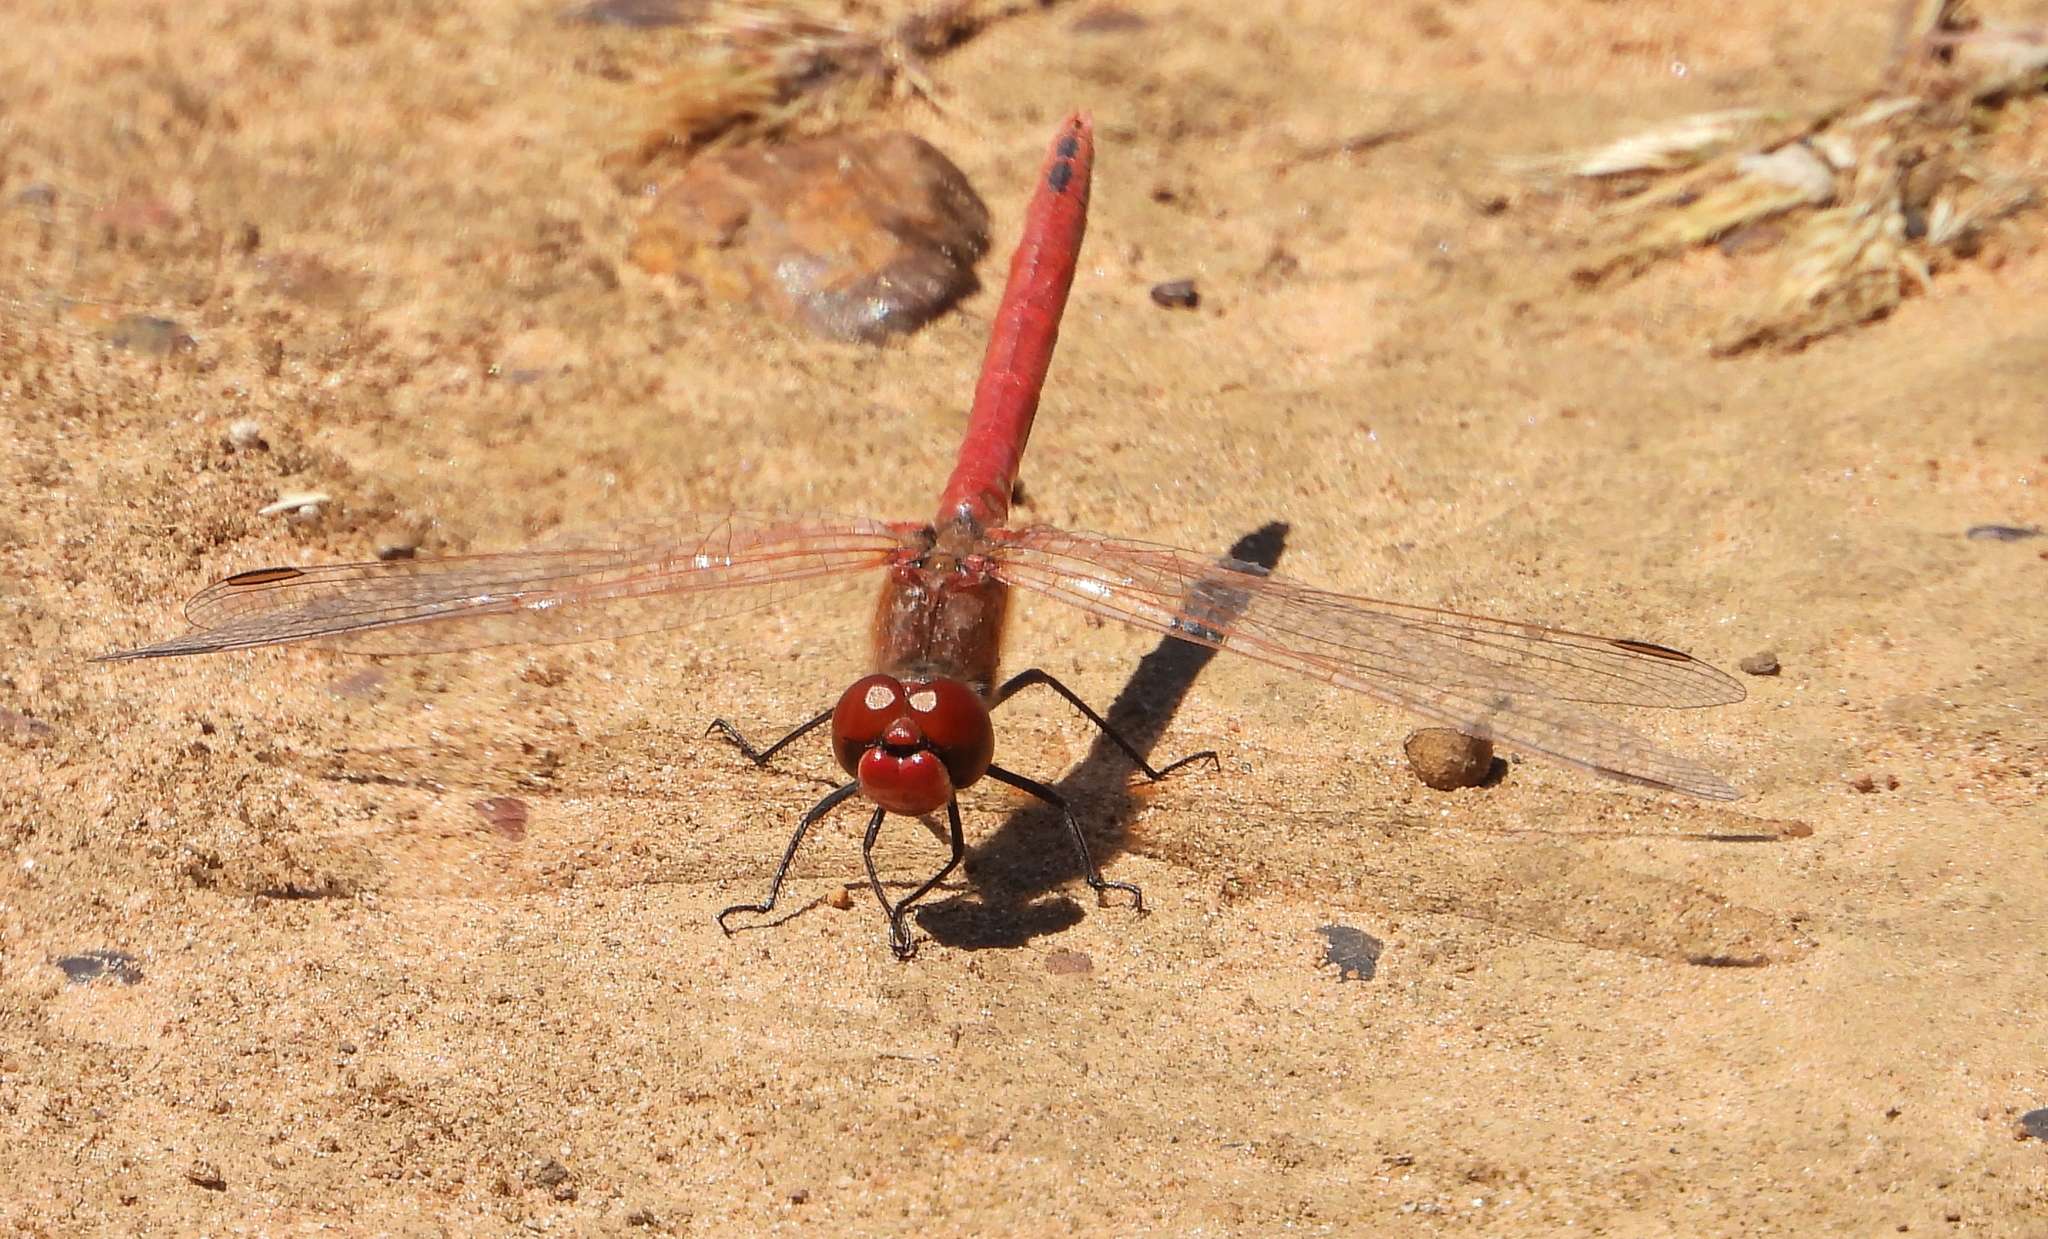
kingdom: Animalia
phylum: Arthropoda
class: Insecta
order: Odonata
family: Libellulidae
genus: Sympetrum
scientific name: Sympetrum fonscolombii
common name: Red-veined darter
